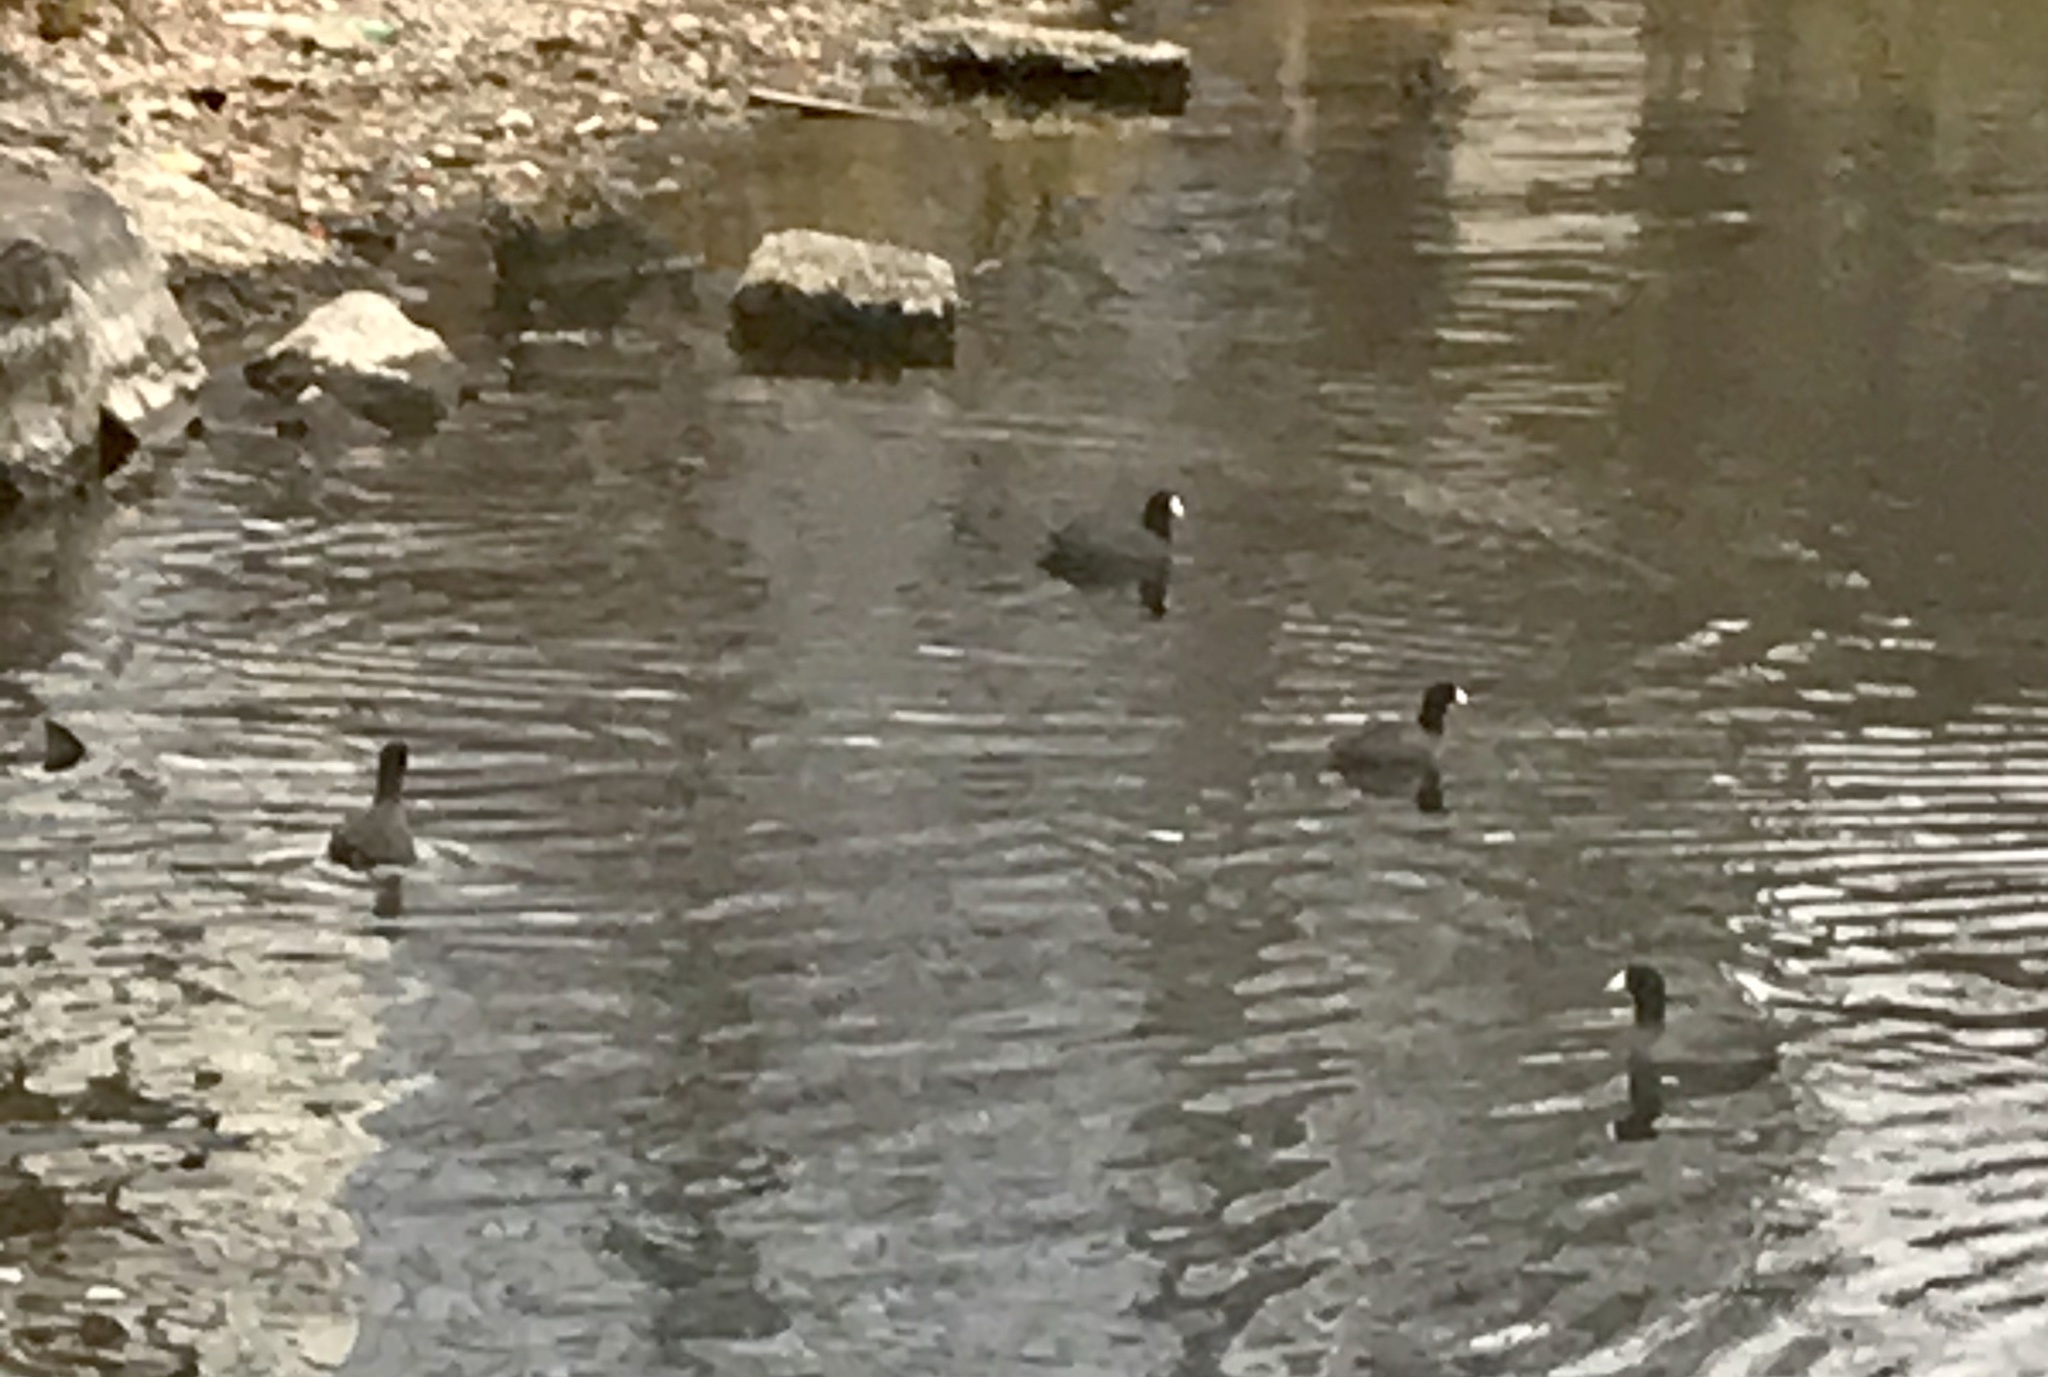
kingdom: Animalia
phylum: Chordata
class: Aves
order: Gruiformes
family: Rallidae
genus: Fulica
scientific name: Fulica americana
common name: American coot
